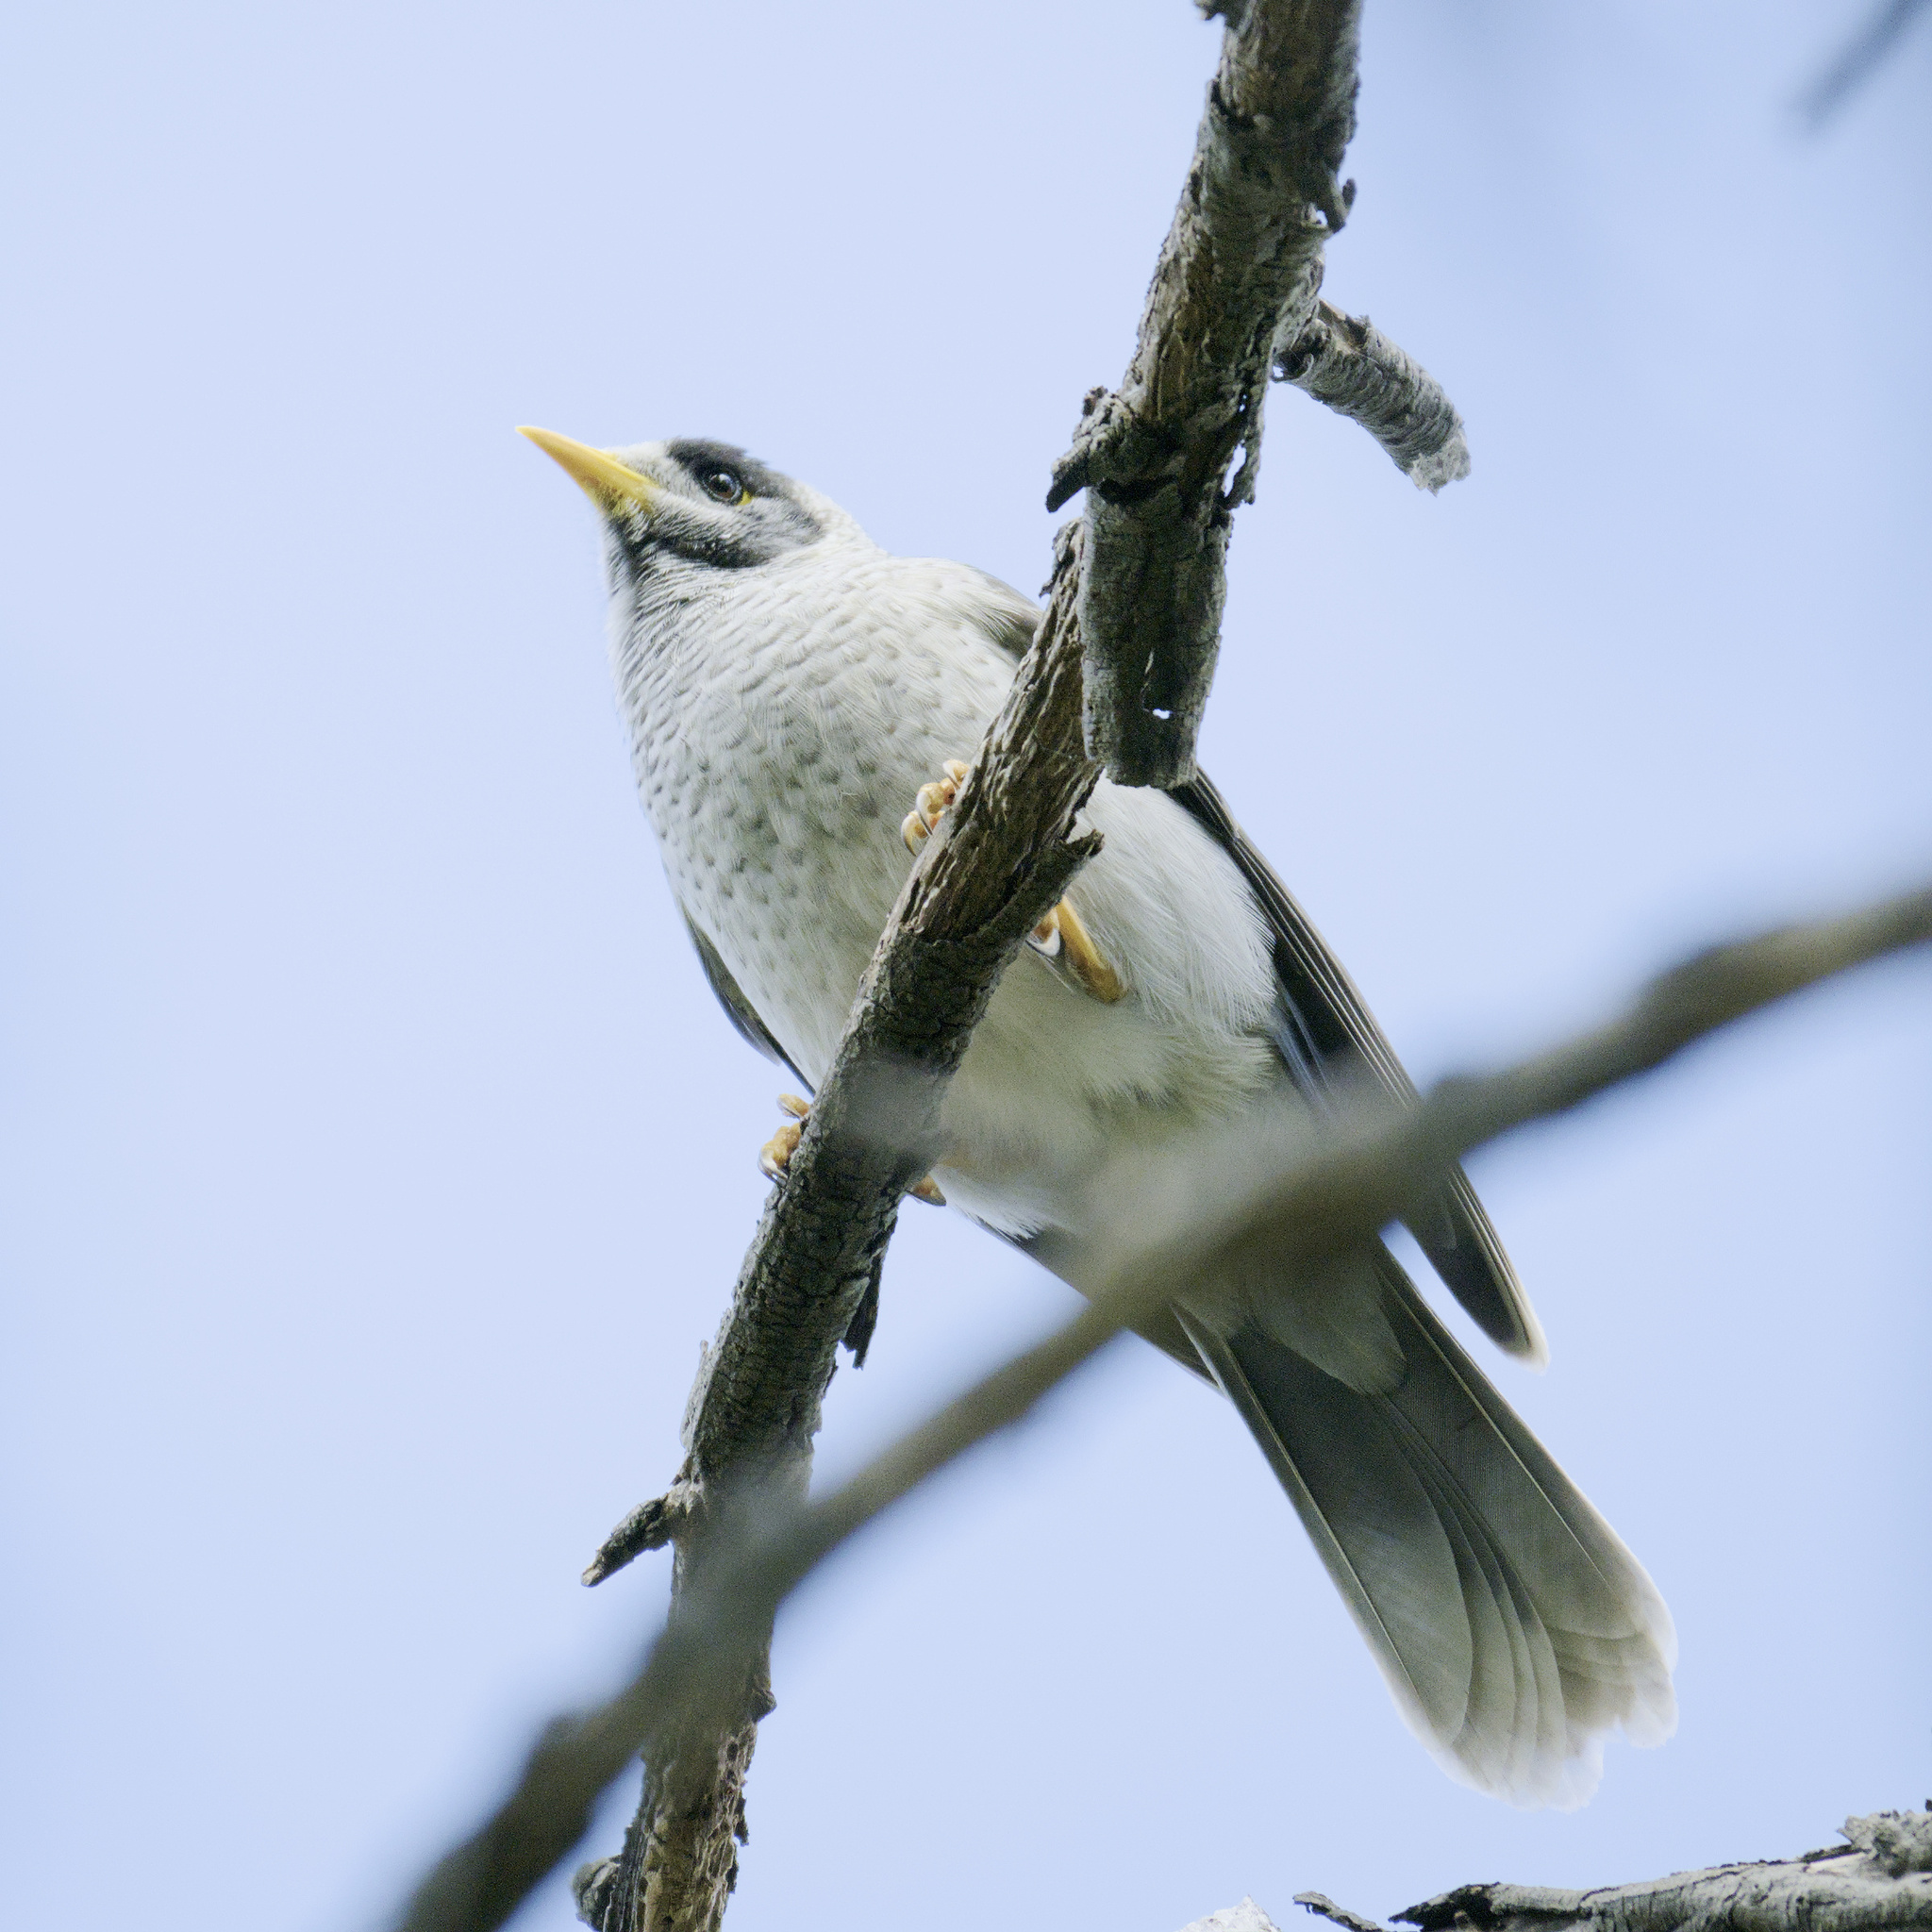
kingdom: Animalia
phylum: Chordata
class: Aves
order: Passeriformes
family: Meliphagidae
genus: Manorina
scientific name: Manorina melanocephala
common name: Noisy miner
